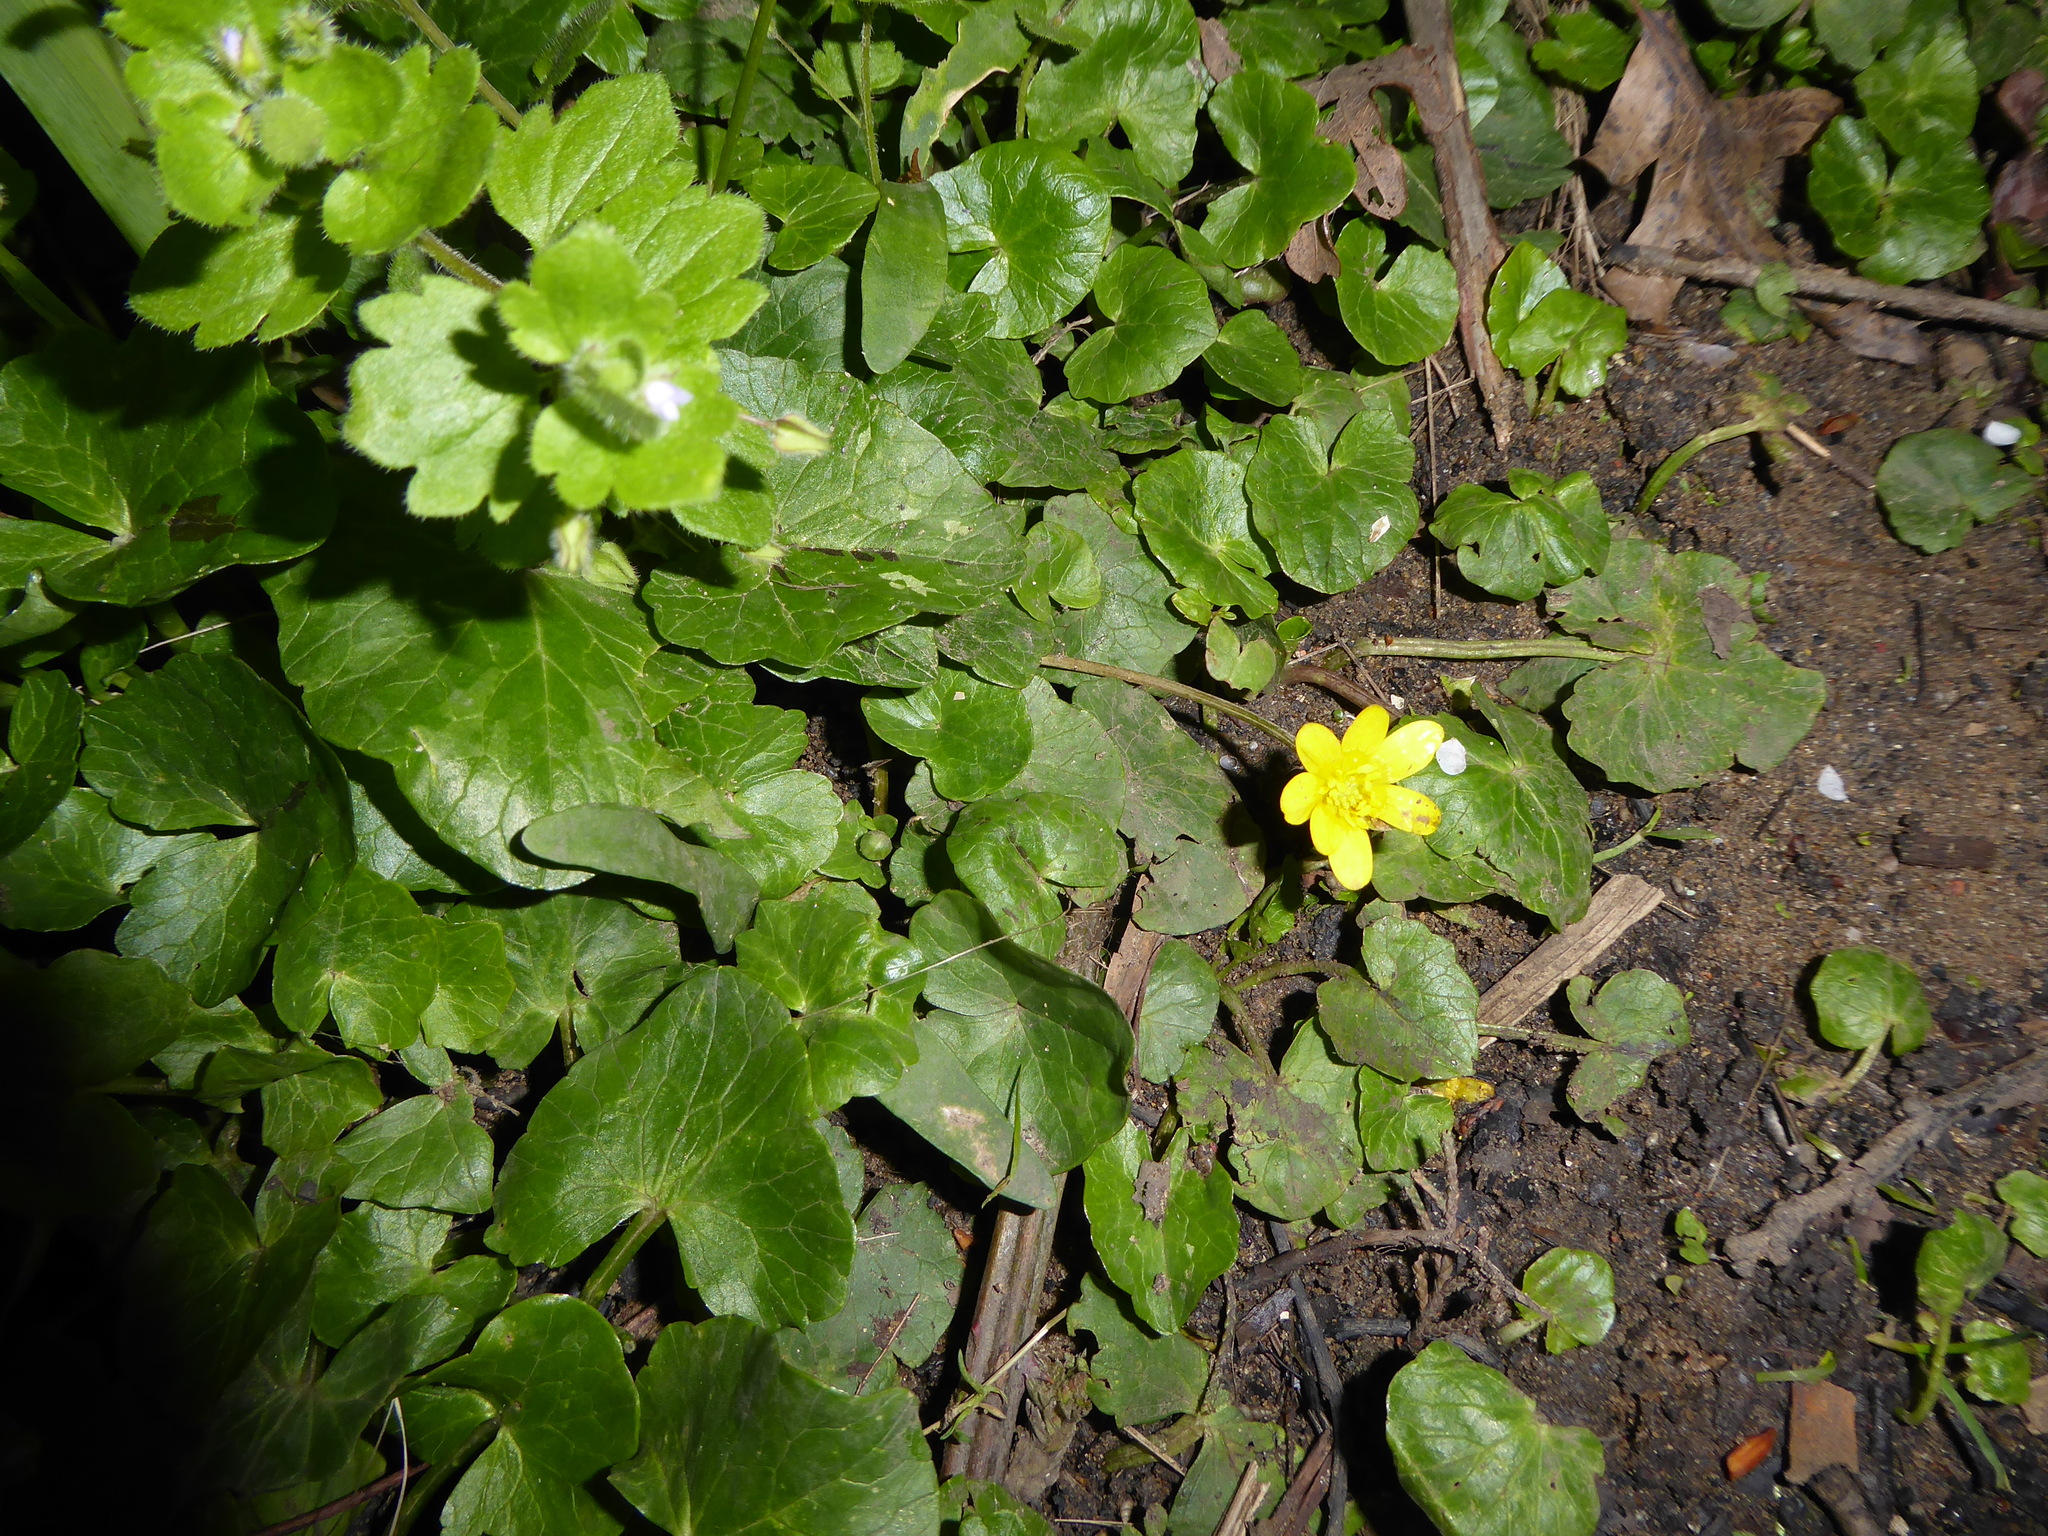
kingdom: Plantae
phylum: Tracheophyta
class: Magnoliopsida
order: Ranunculales
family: Ranunculaceae
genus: Ficaria
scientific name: Ficaria verna
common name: Lesser celandine
